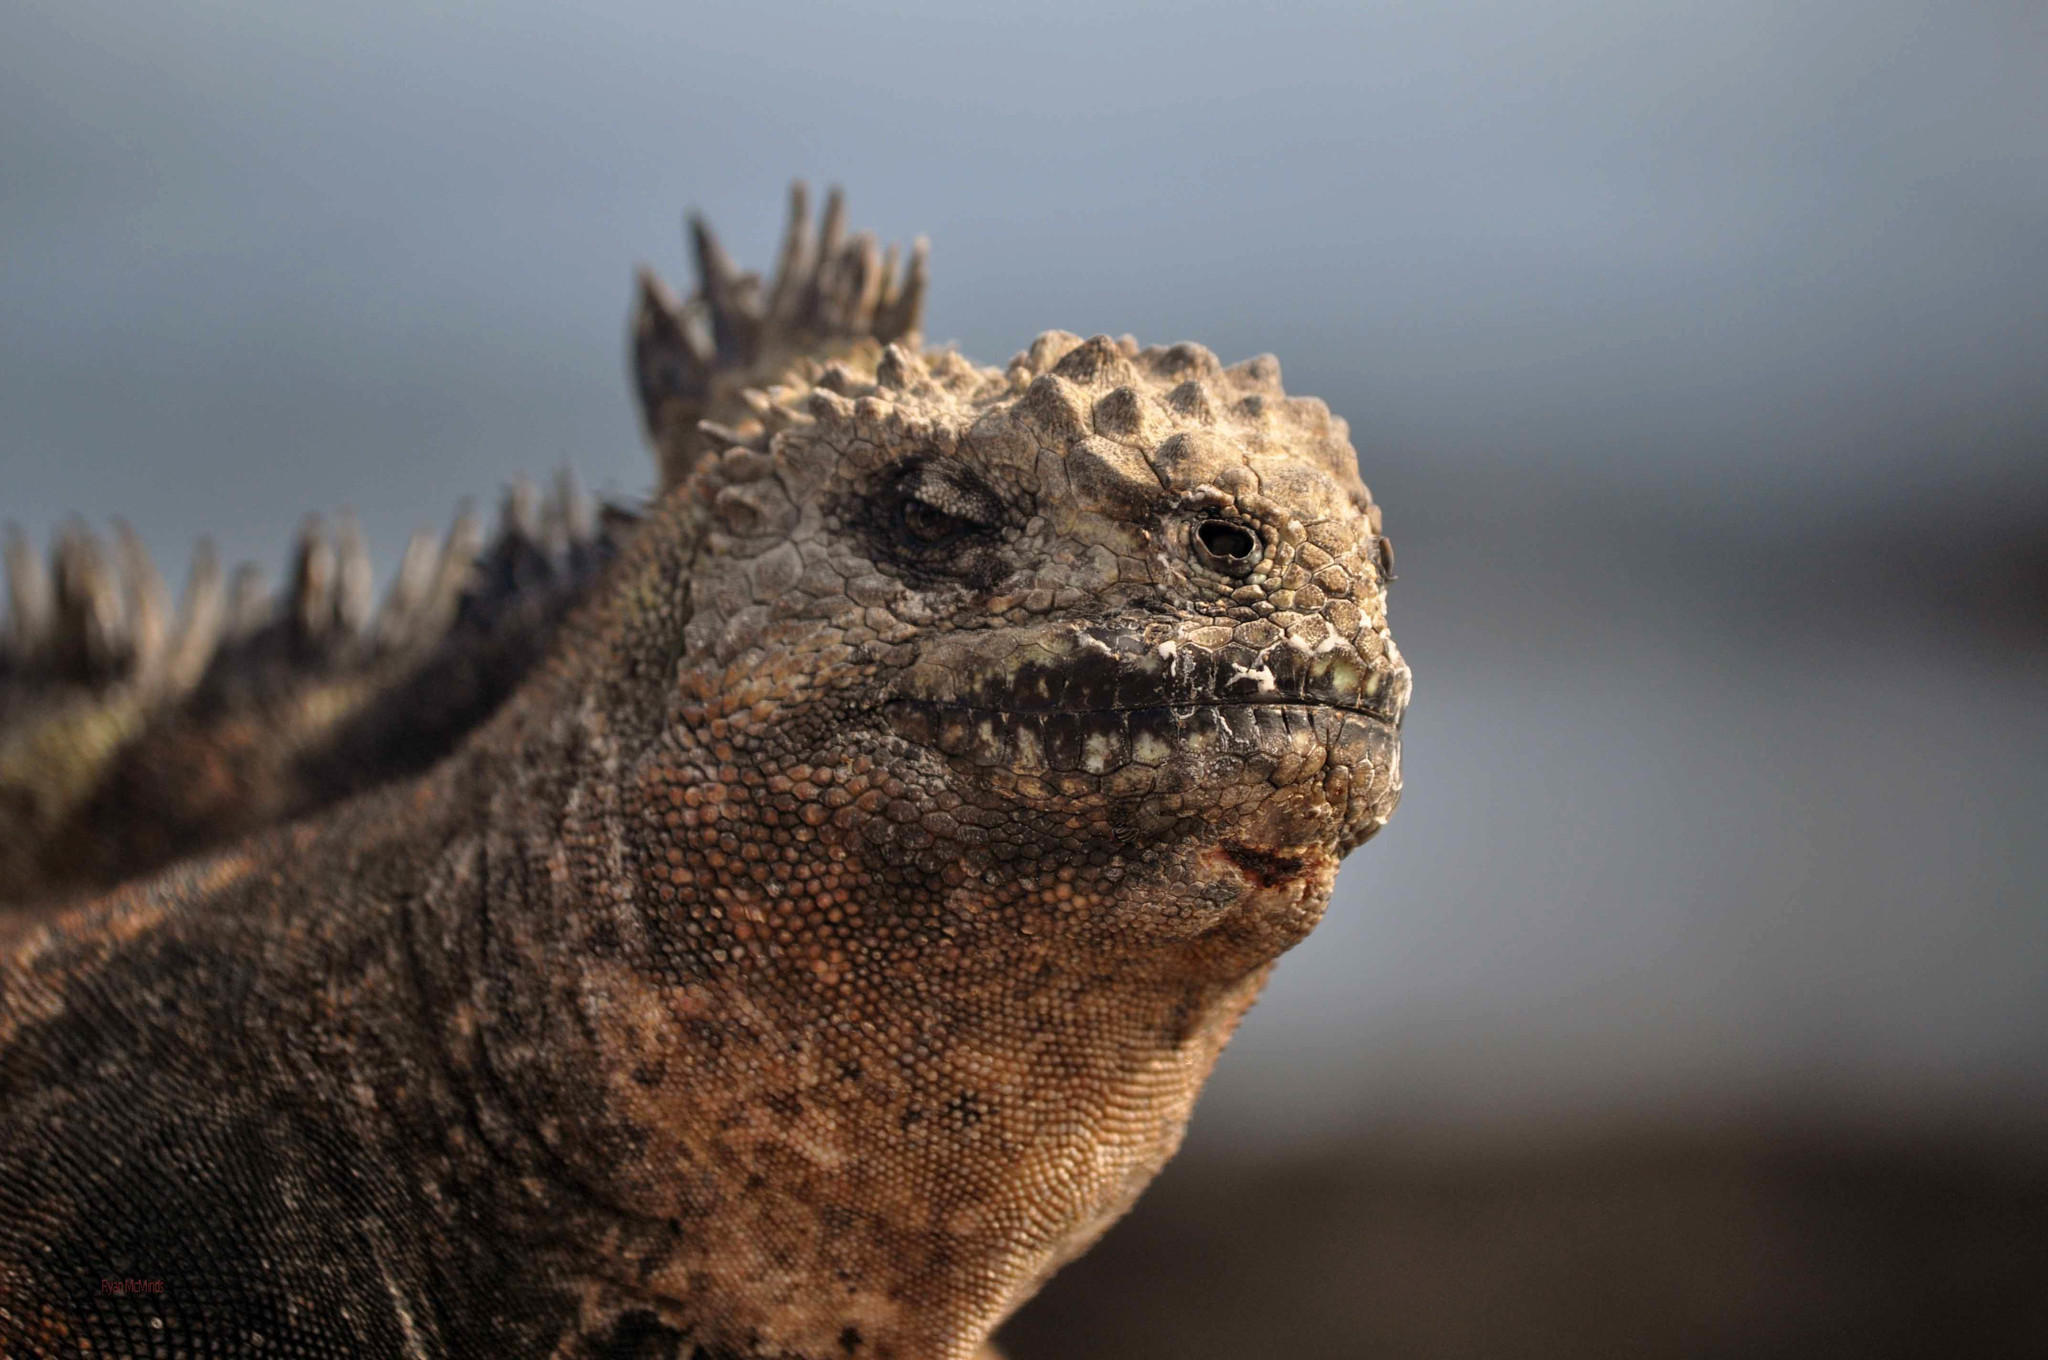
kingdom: Animalia
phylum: Chordata
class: Squamata
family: Iguanidae
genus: Amblyrhynchus
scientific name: Amblyrhynchus cristatus
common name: Marine iguana
